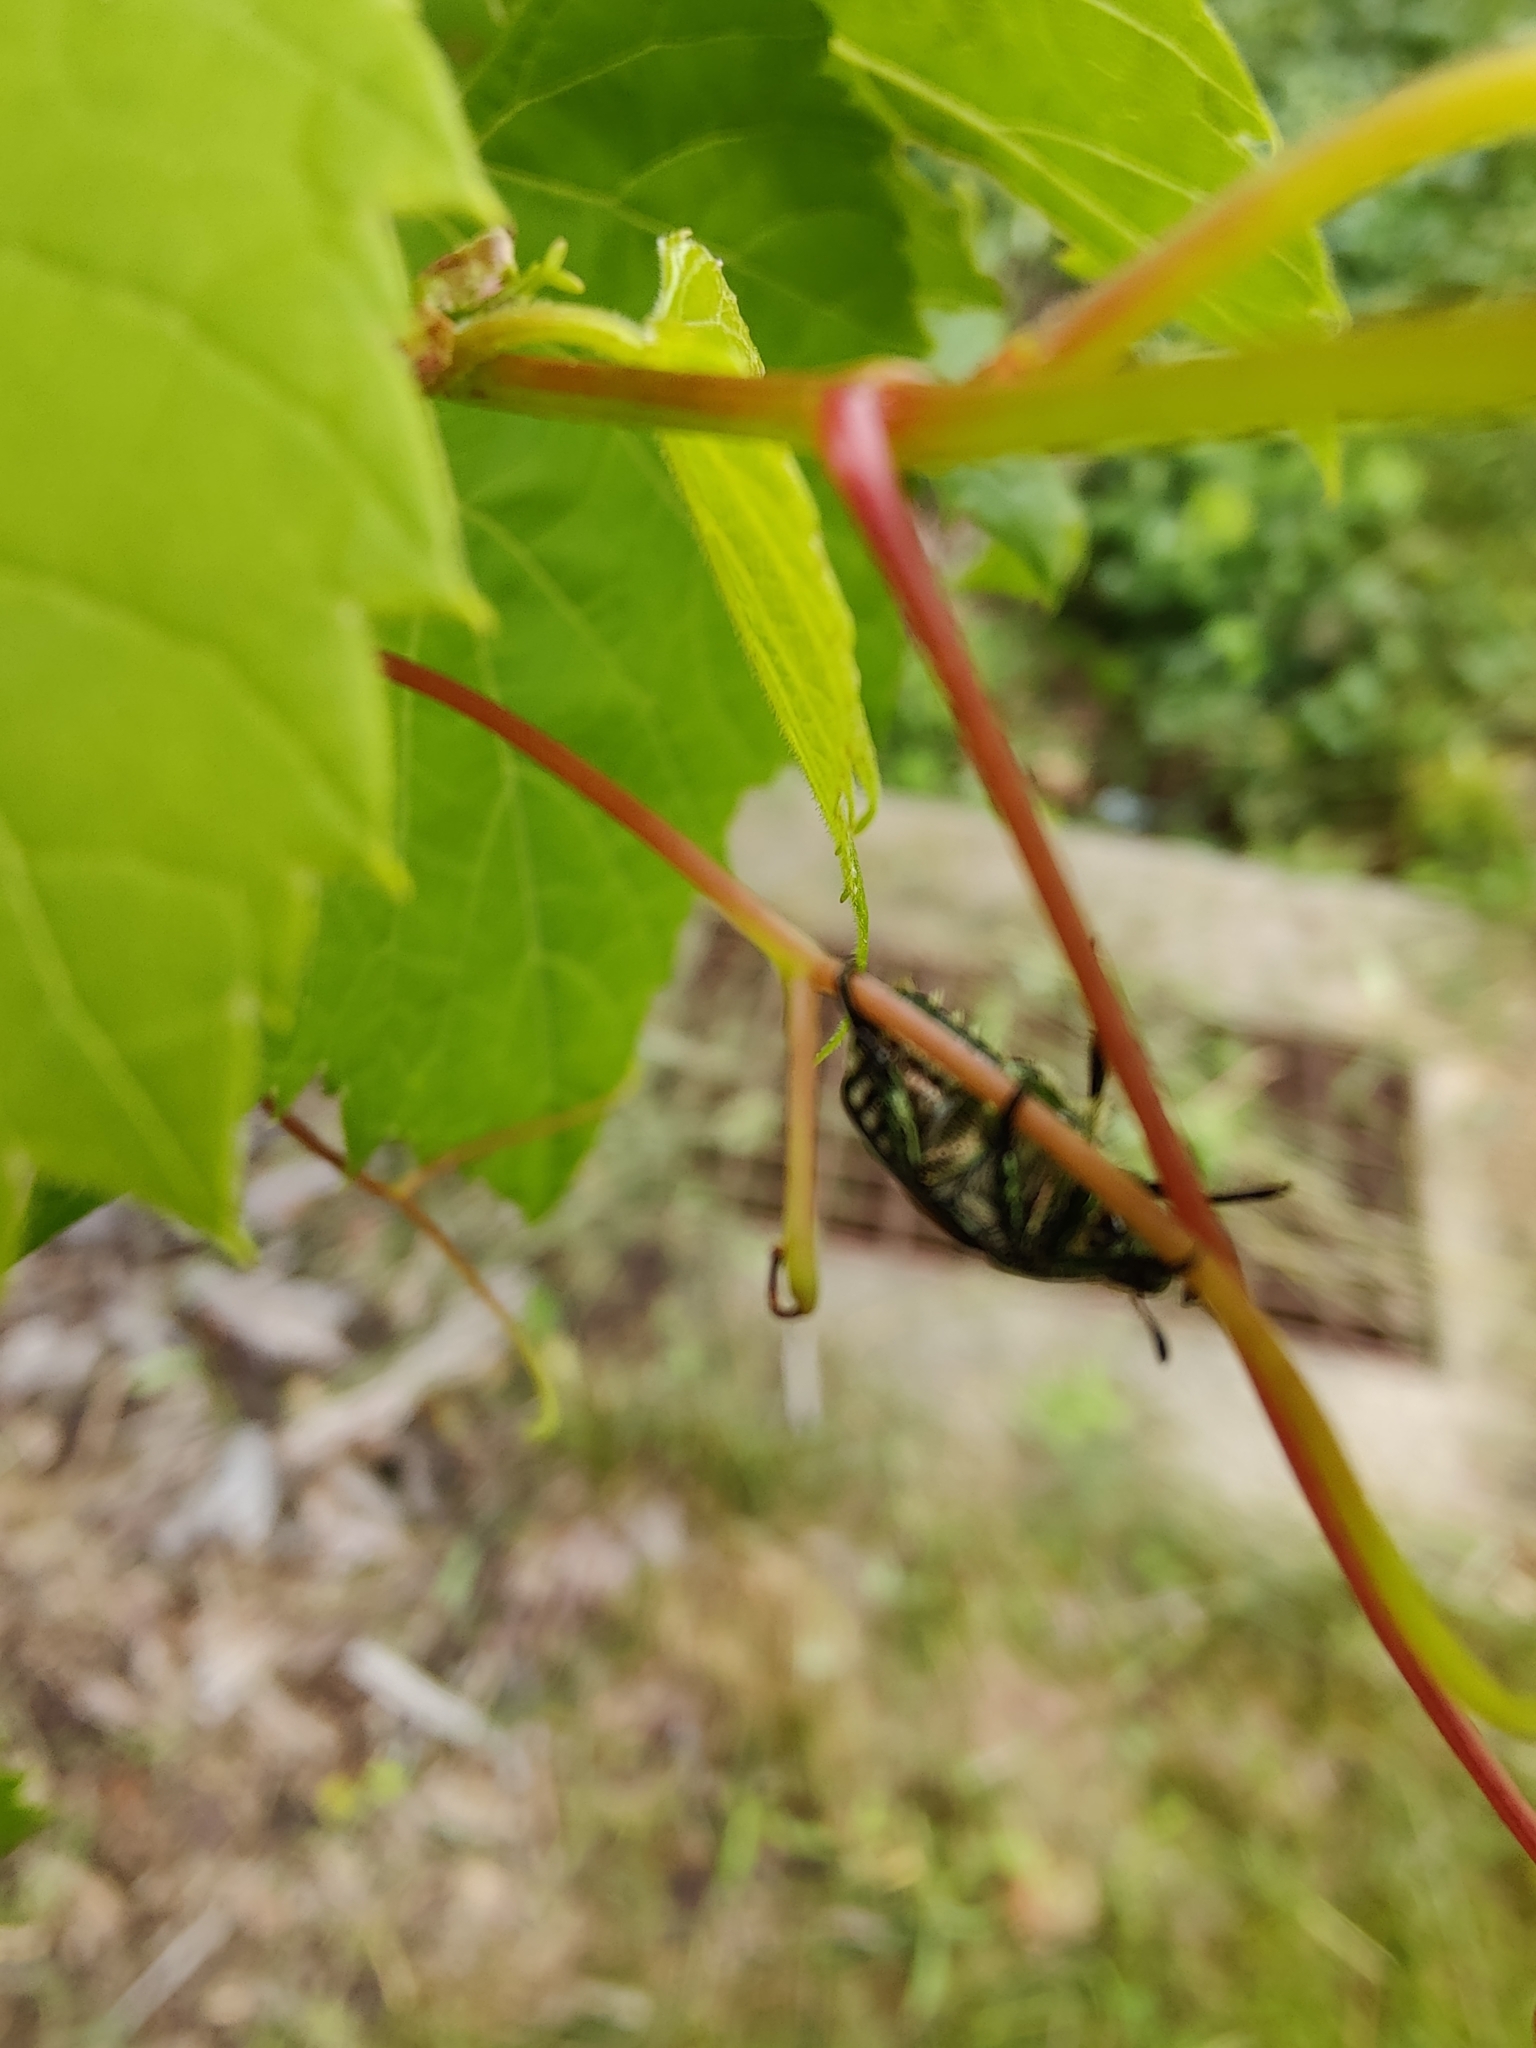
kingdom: Animalia
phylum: Arthropoda
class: Insecta
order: Coleoptera
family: Scarabaeidae
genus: Popillia
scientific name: Popillia japonica
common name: Japanese beetle
